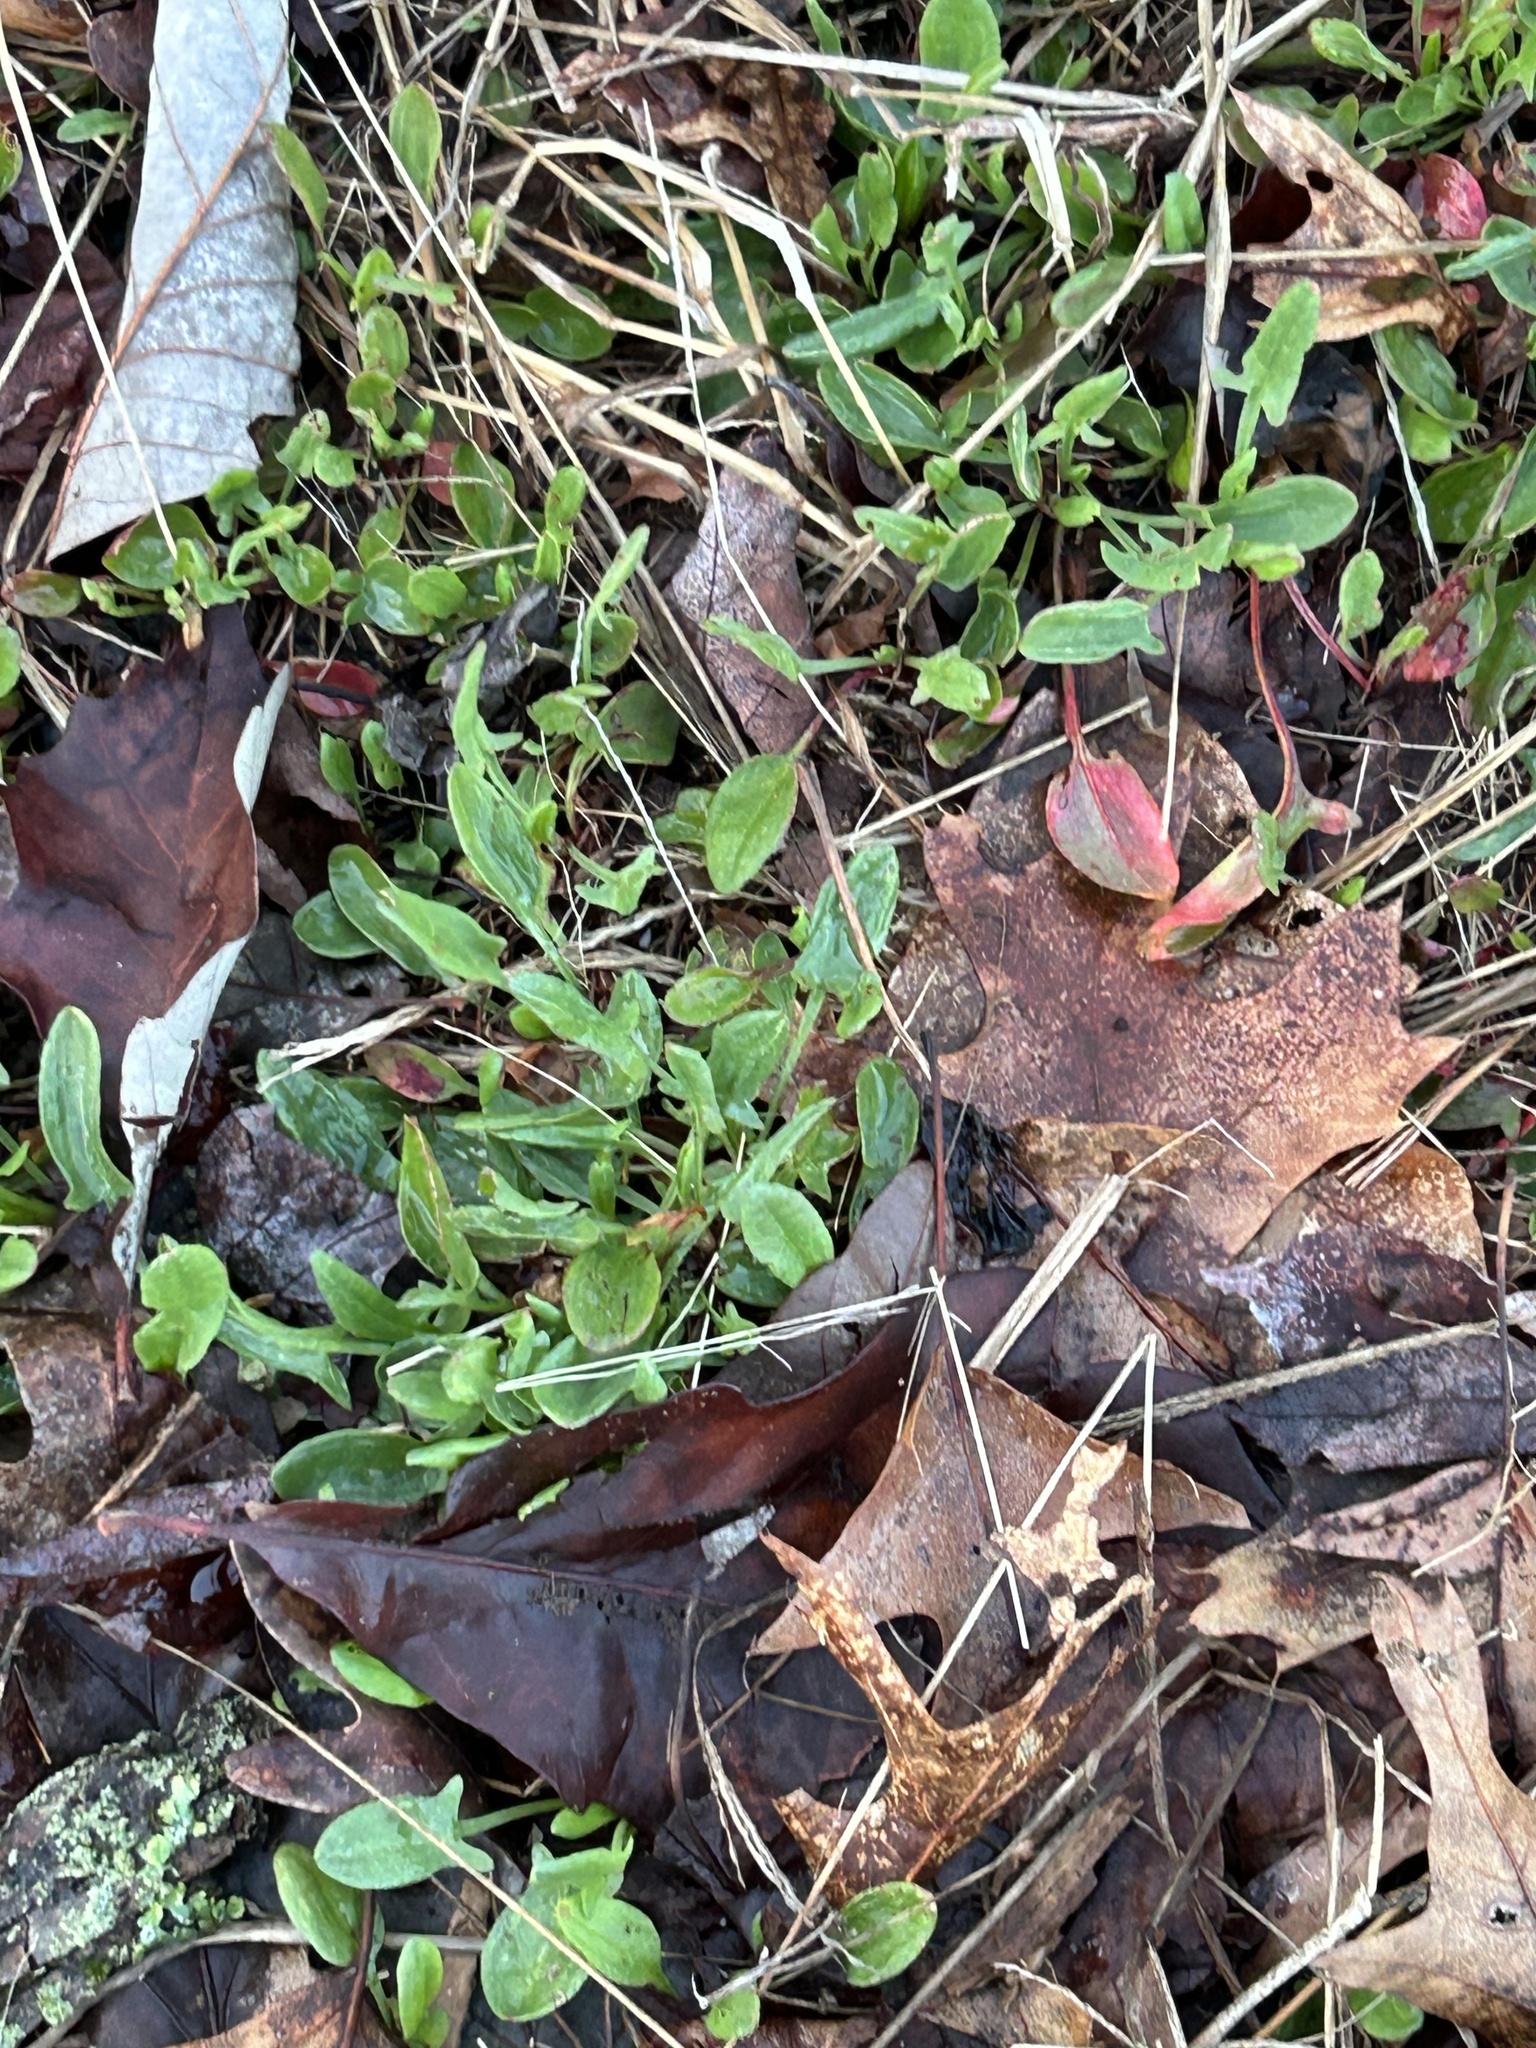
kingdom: Plantae
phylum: Tracheophyta
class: Magnoliopsida
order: Caryophyllales
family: Polygonaceae
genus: Rumex
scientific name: Rumex acetosella
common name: Common sheep sorrel
